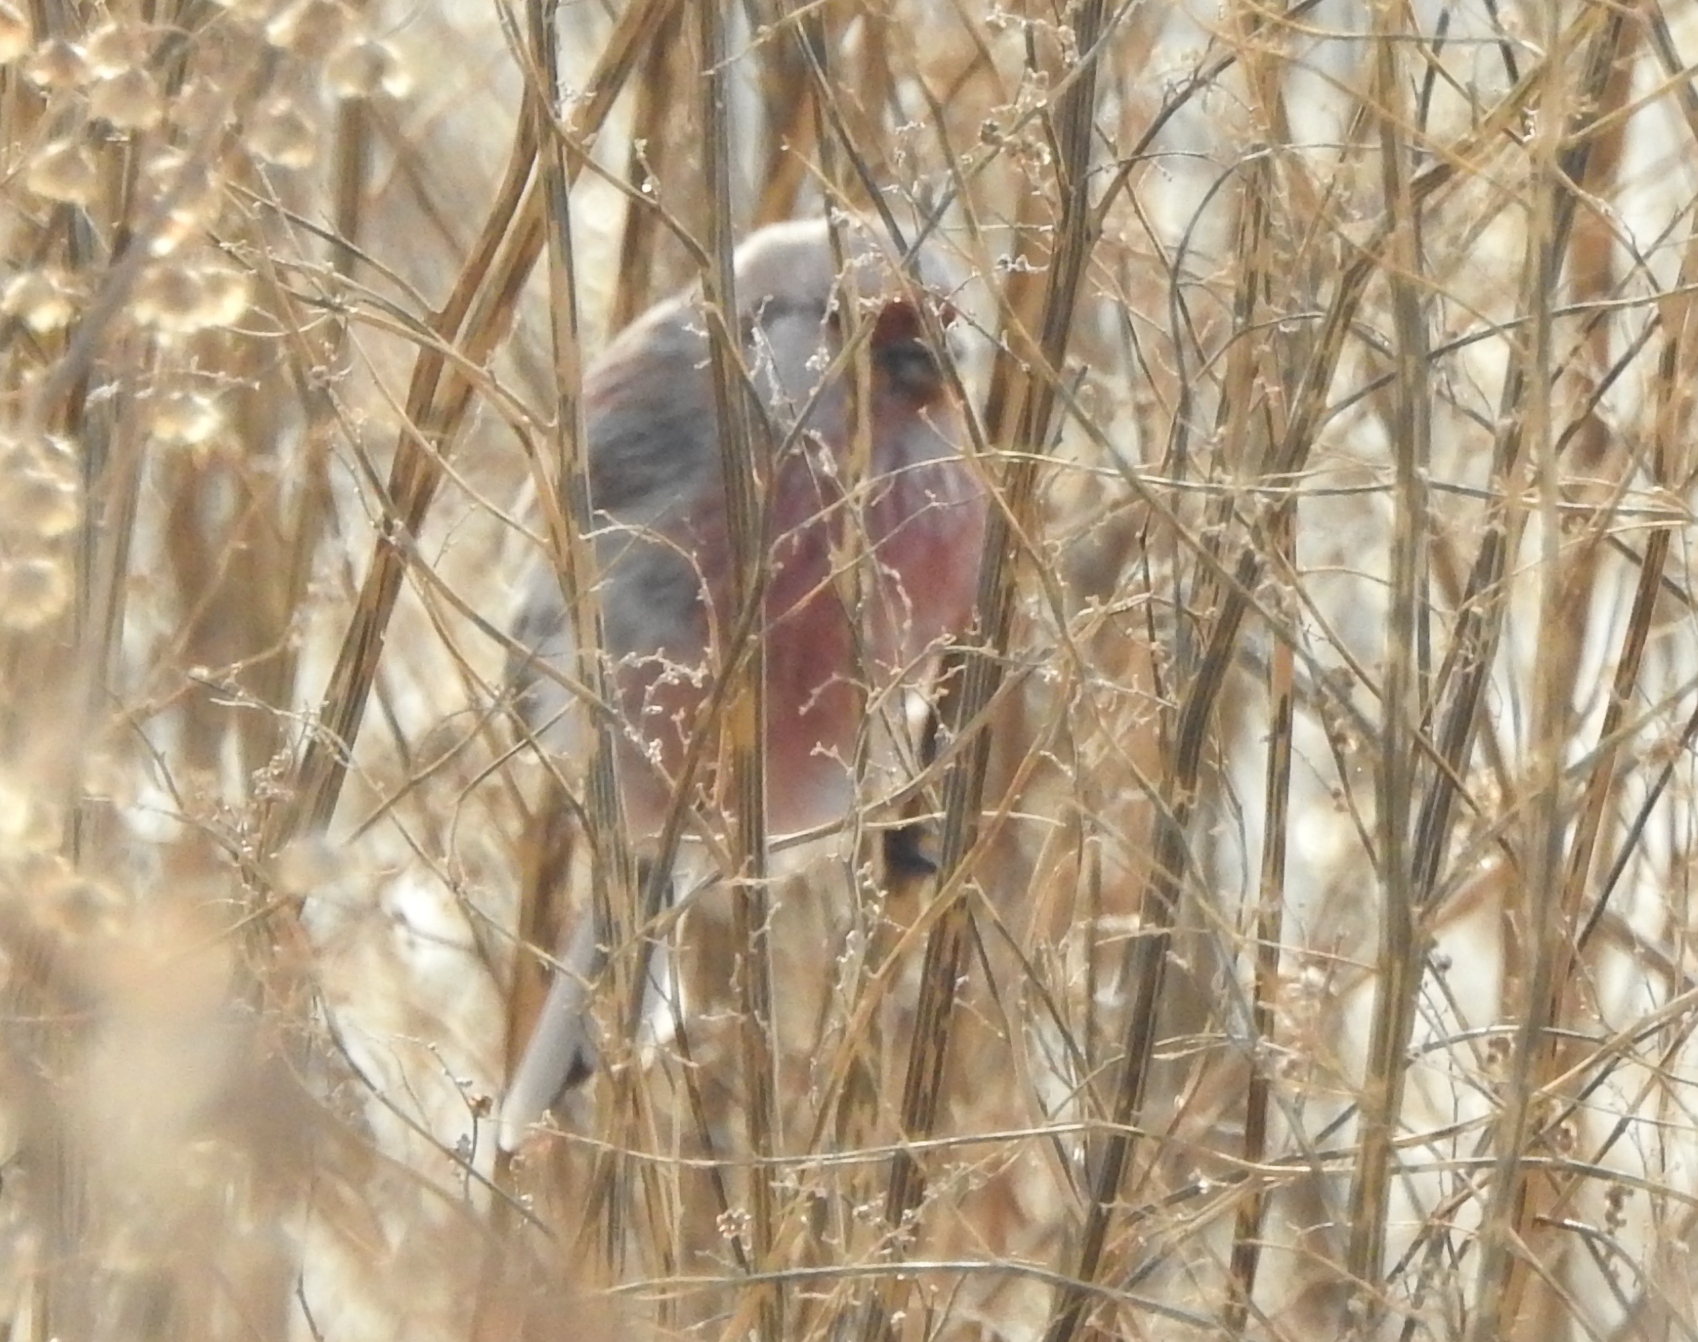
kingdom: Animalia
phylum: Chordata
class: Aves
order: Passeriformes
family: Fringillidae
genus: Carpodacus
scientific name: Carpodacus sibiricus
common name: Long-tailed rosefinch
